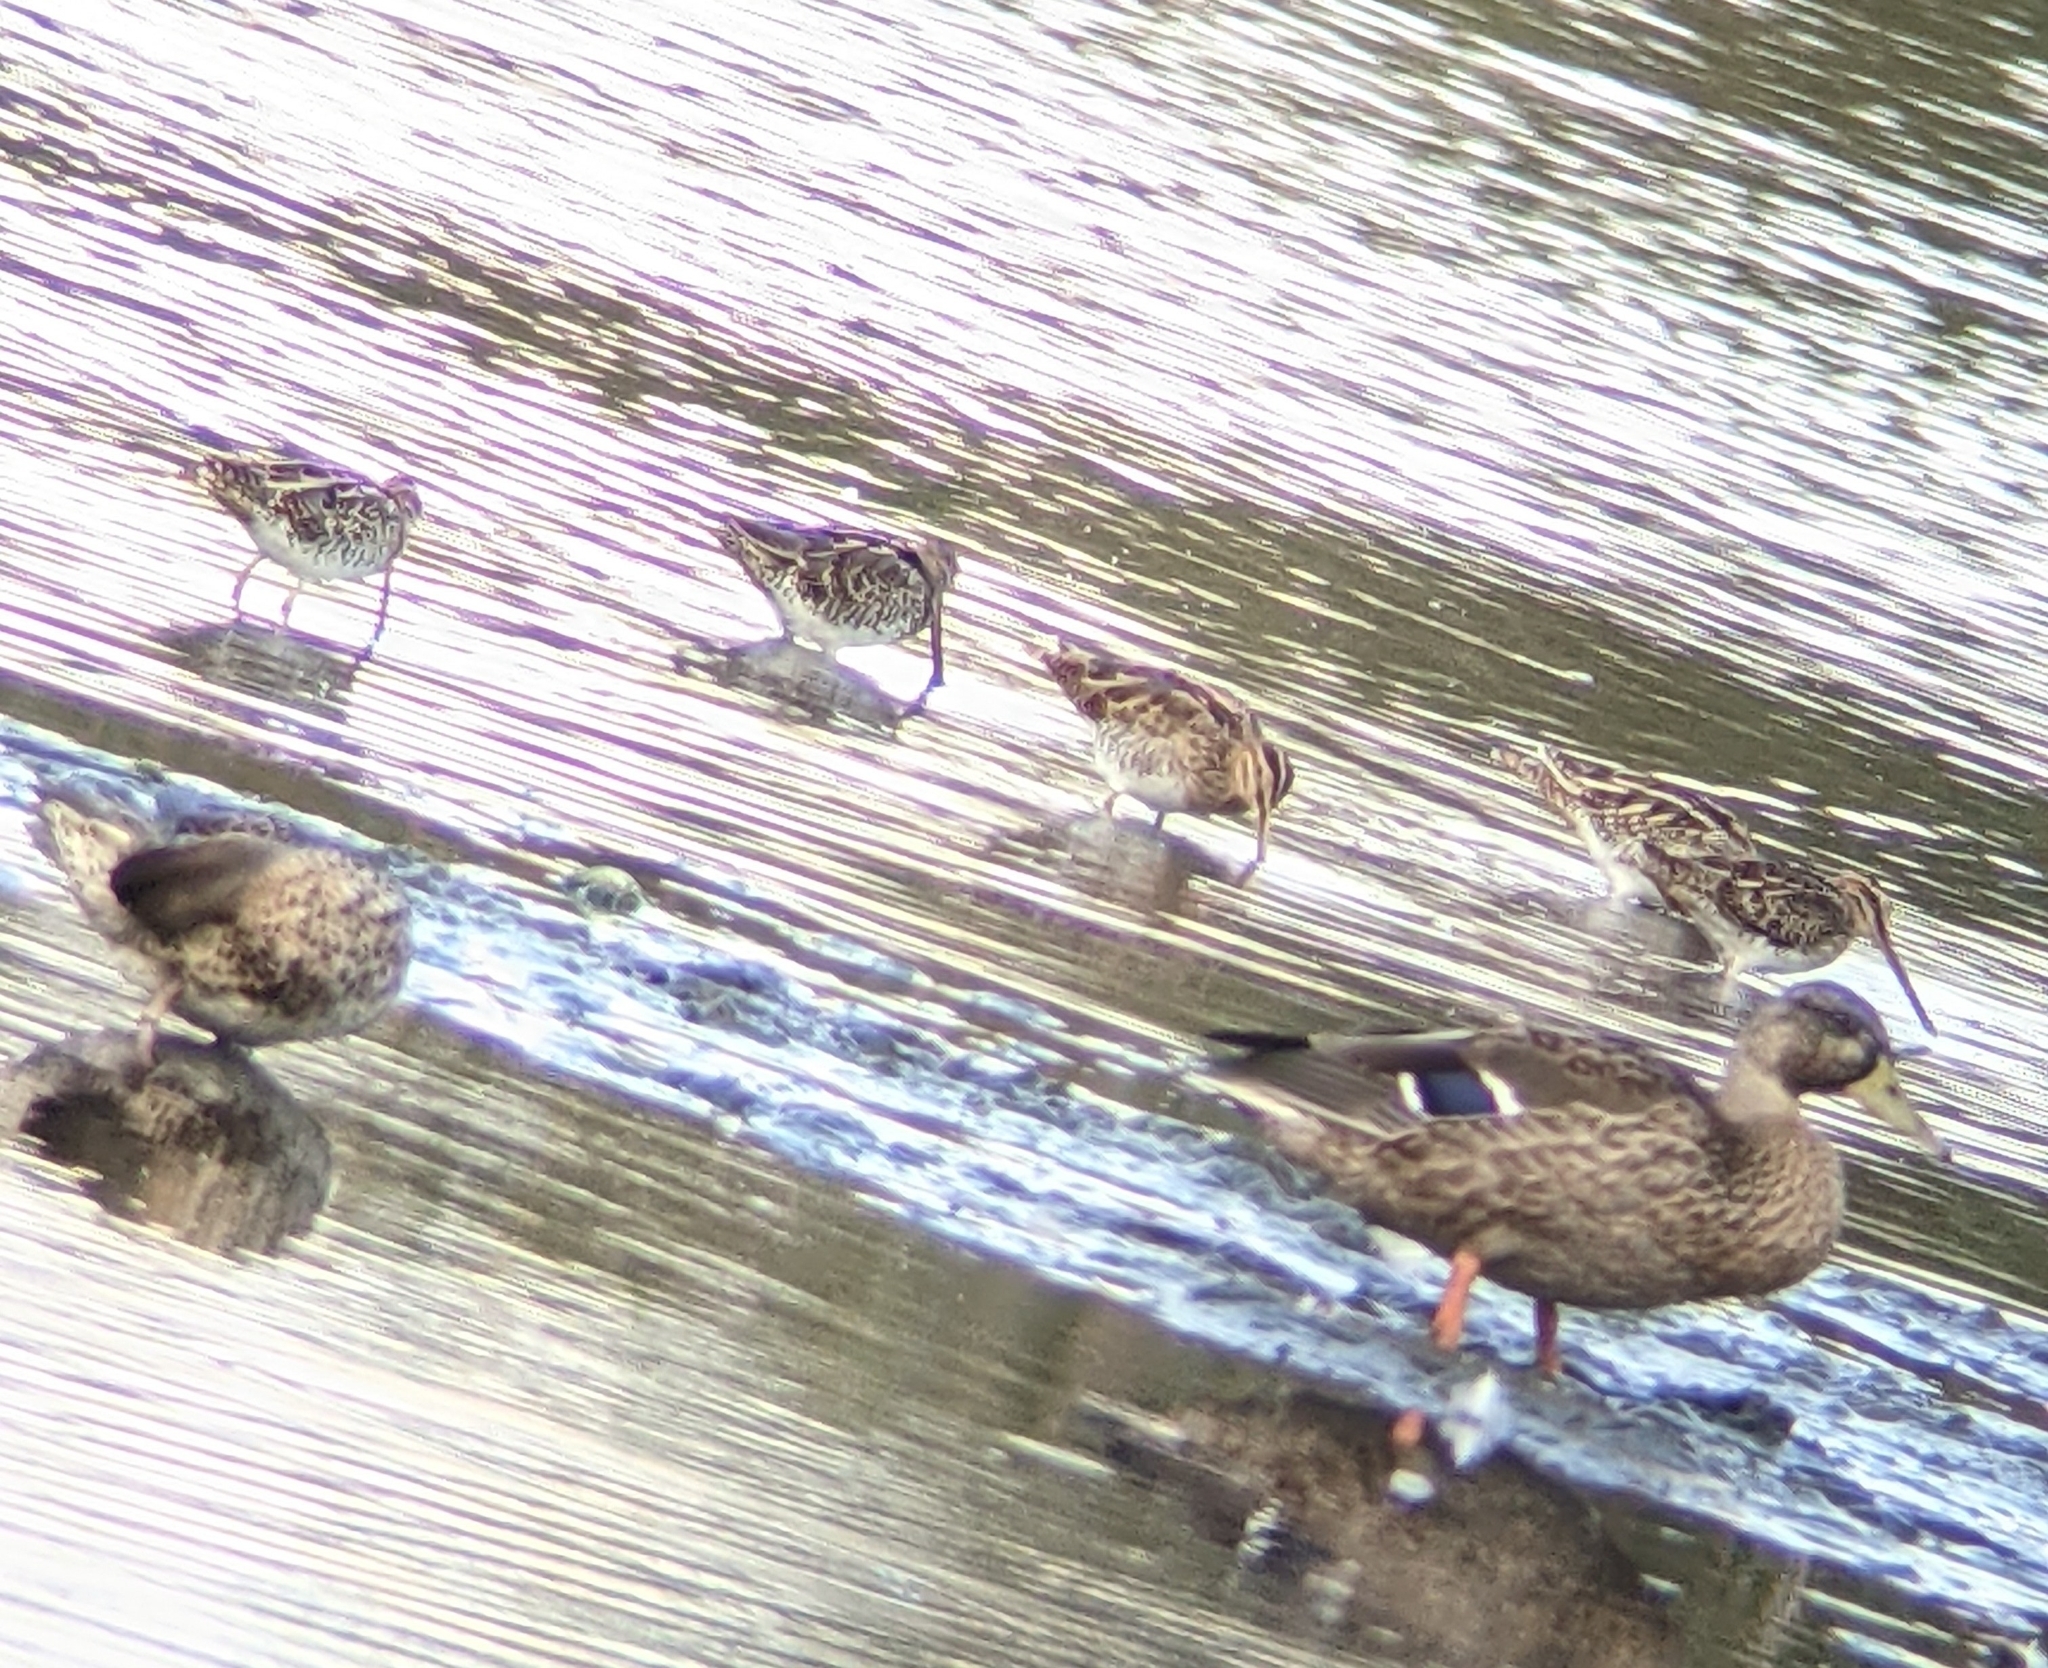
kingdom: Animalia
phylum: Chordata
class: Aves
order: Charadriiformes
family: Scolopacidae
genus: Gallinago
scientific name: Gallinago gallinago
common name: Common snipe
